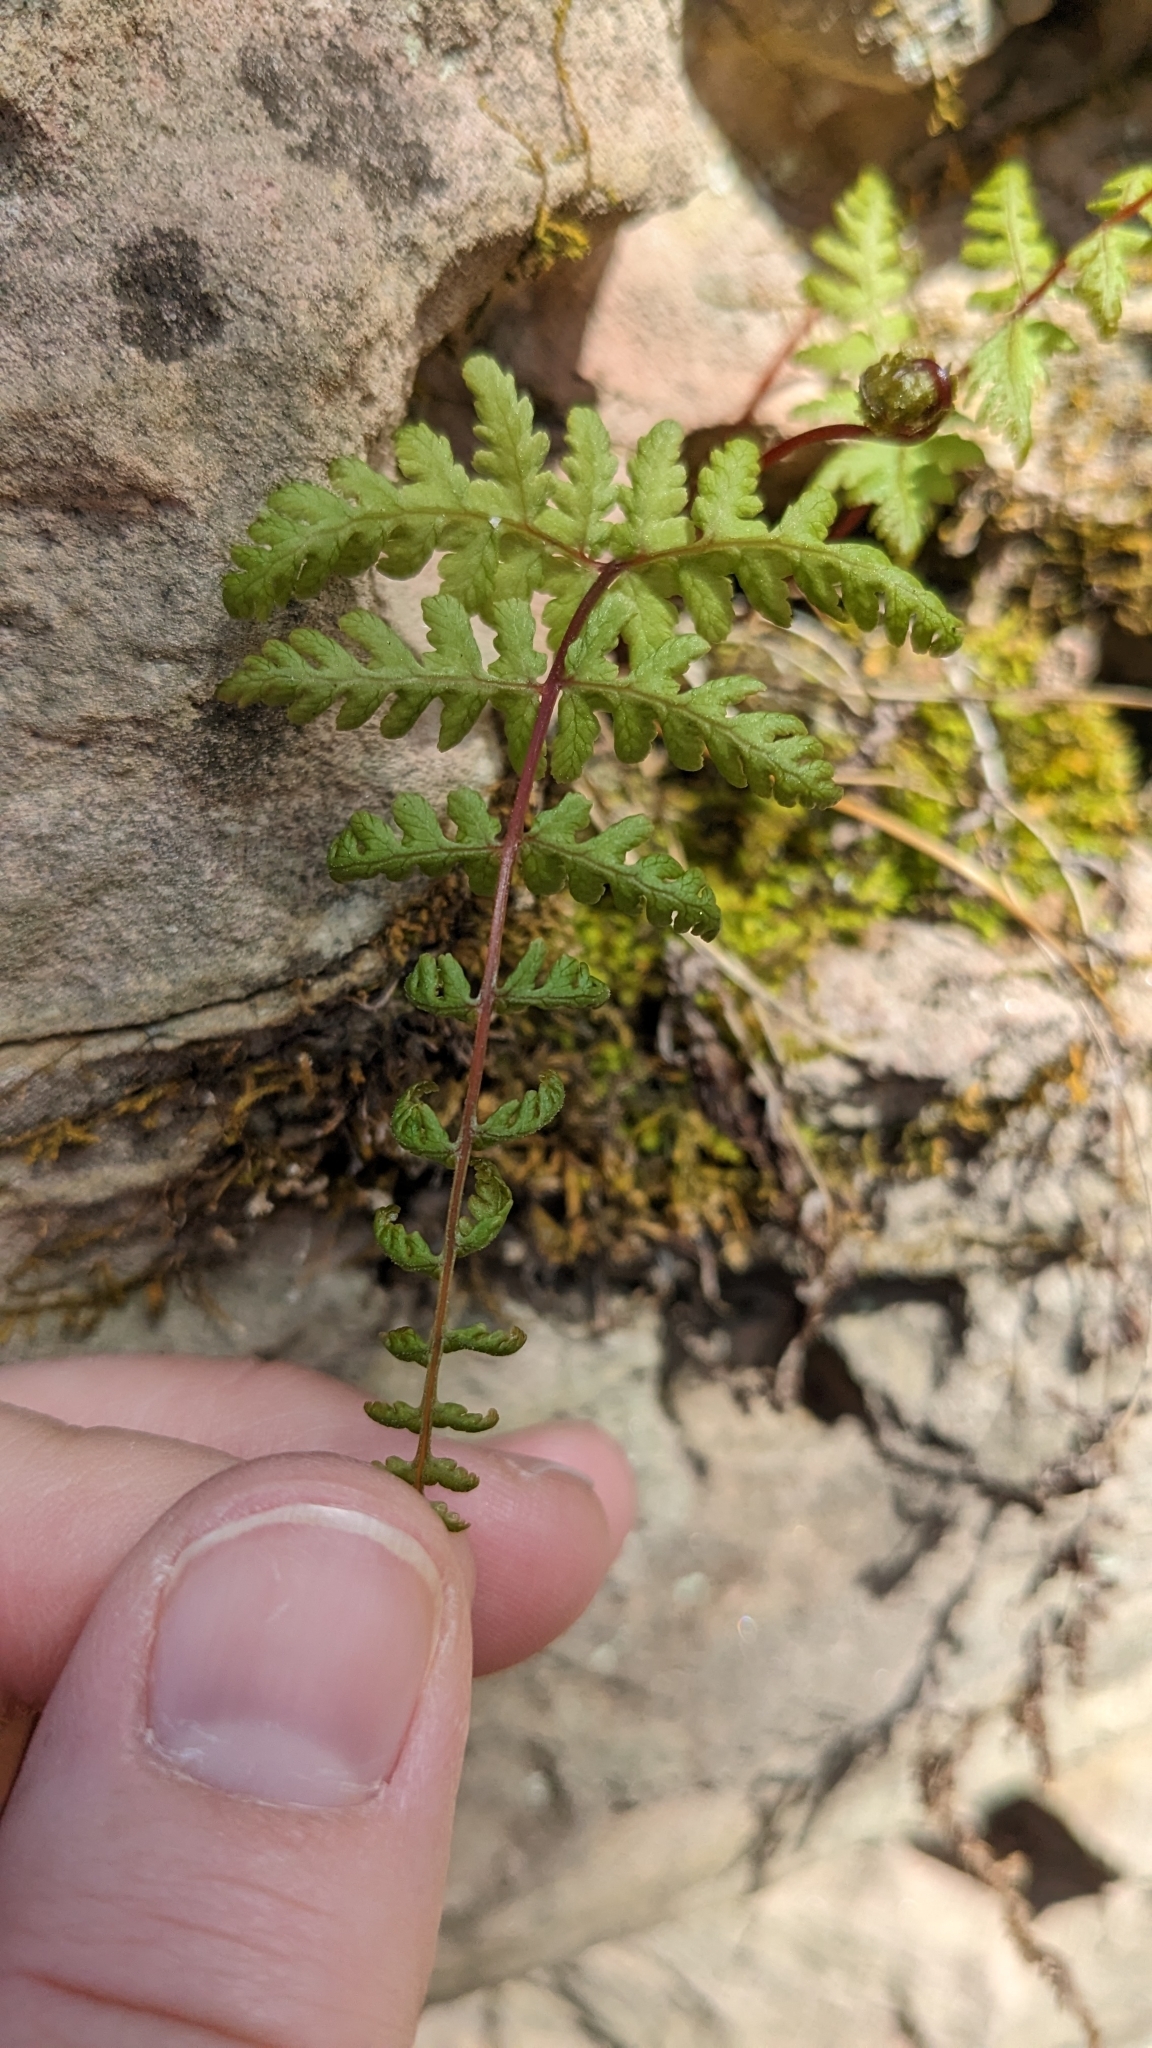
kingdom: Plantae
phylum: Tracheophyta
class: Polypodiopsida
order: Polypodiales
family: Cystopteridaceae
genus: Cystopteris
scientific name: Cystopteris bulbifera
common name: Bulblet bladder fern
